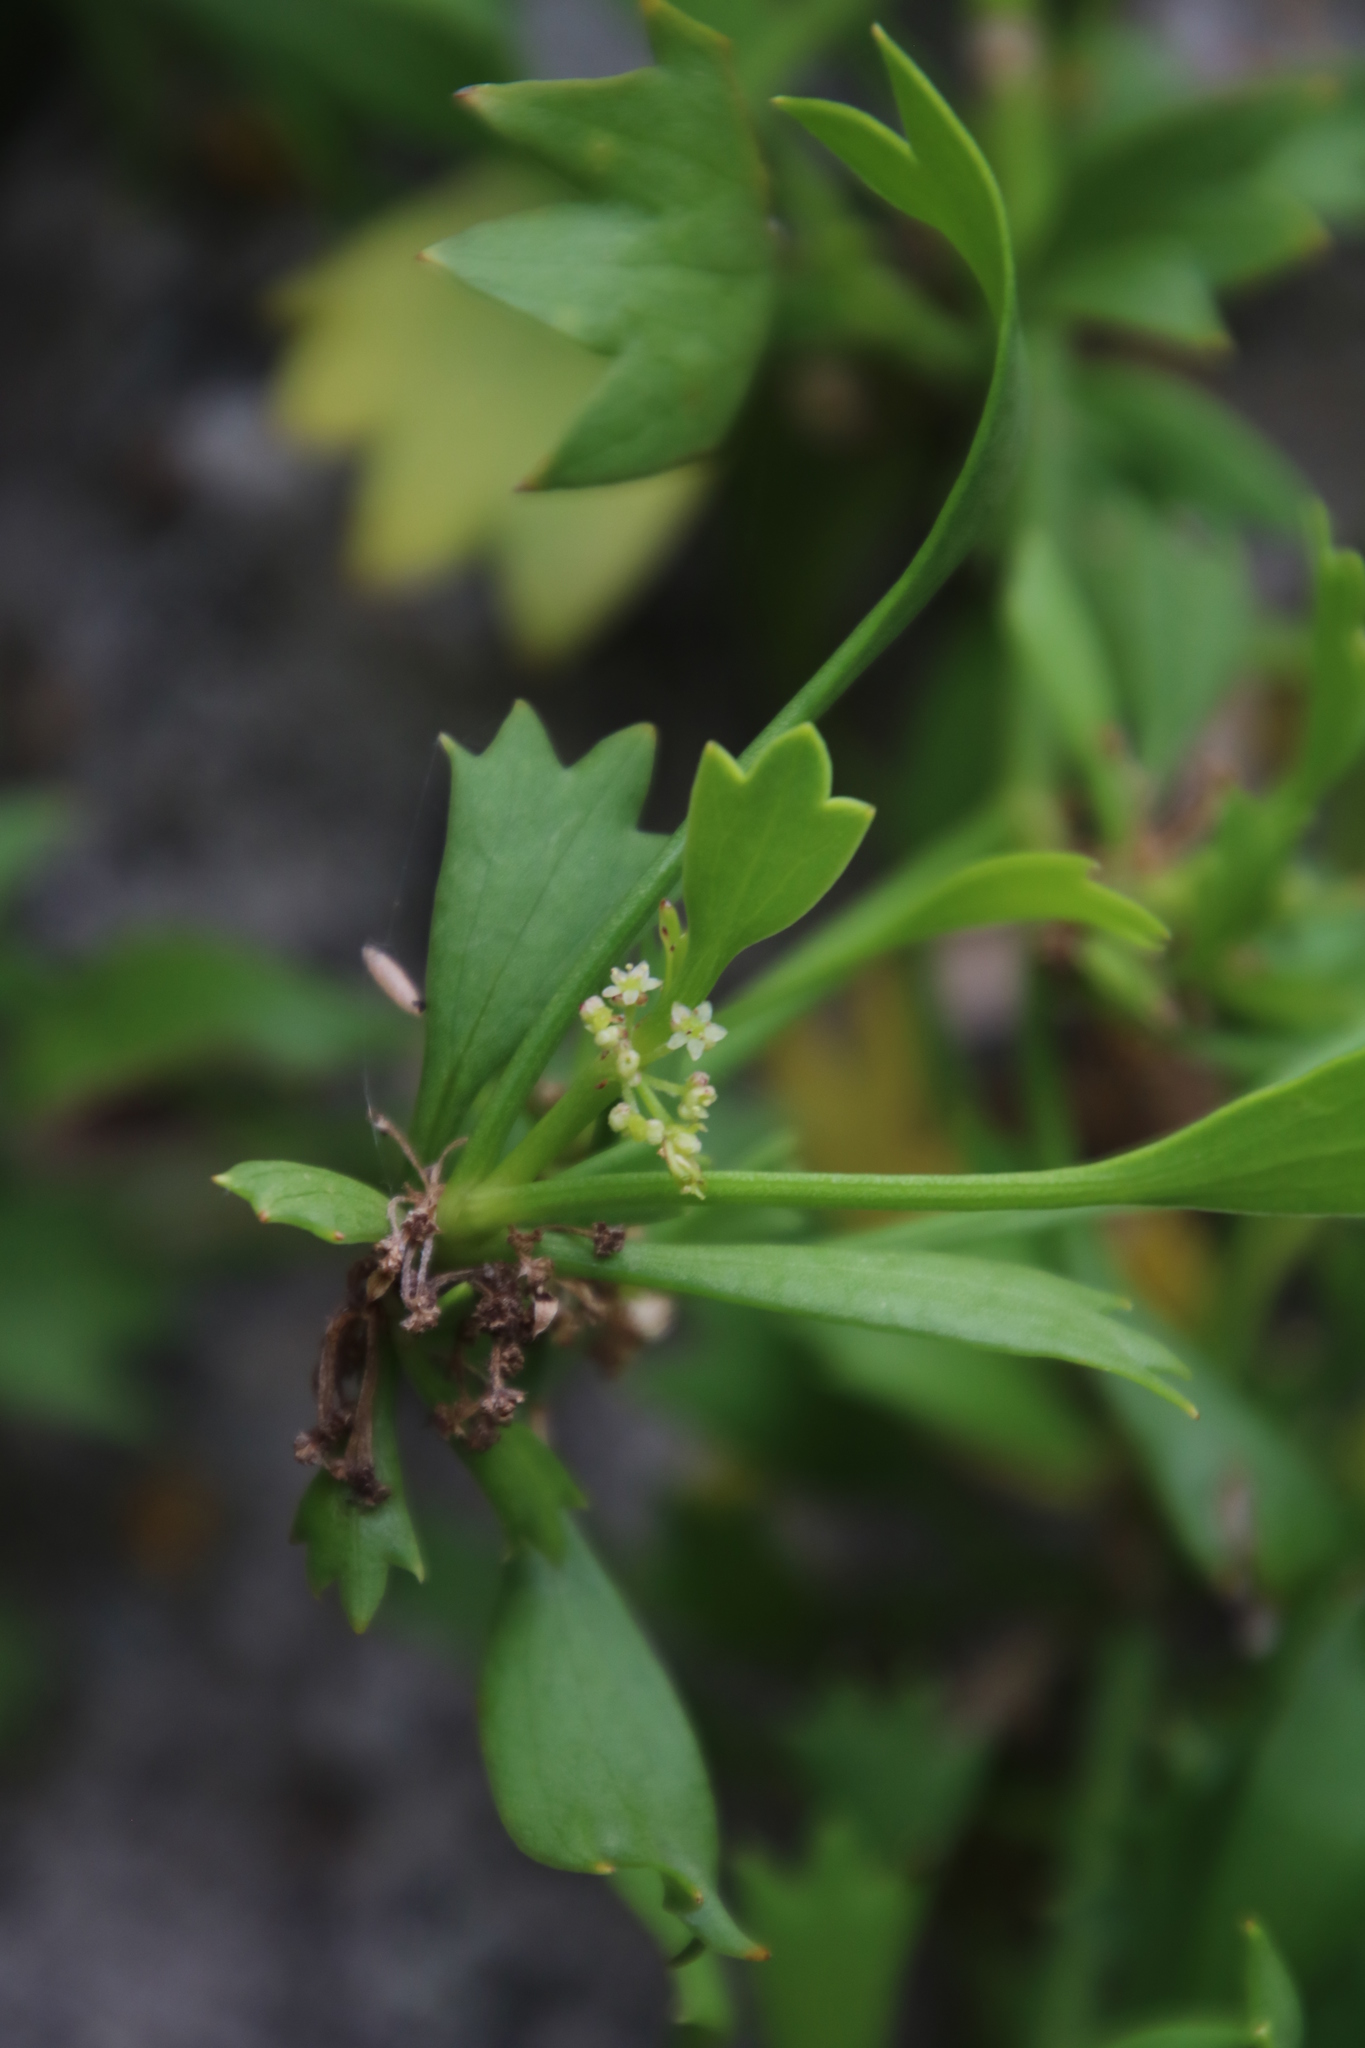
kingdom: Plantae
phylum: Tracheophyta
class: Magnoliopsida
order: Apiales
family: Apiaceae
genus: Centella
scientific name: Centella triloba
